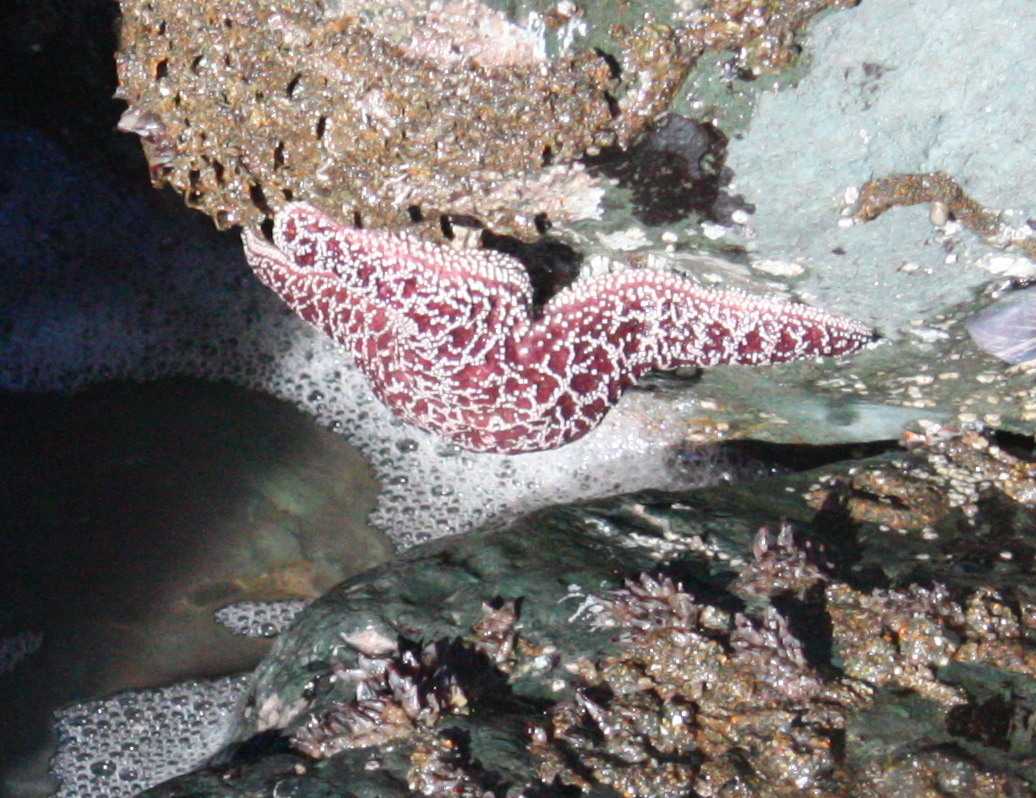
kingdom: Animalia
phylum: Echinodermata
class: Asteroidea
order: Forcipulatida
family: Asteriidae
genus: Pisaster
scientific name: Pisaster ochraceus
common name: Ochre stars
